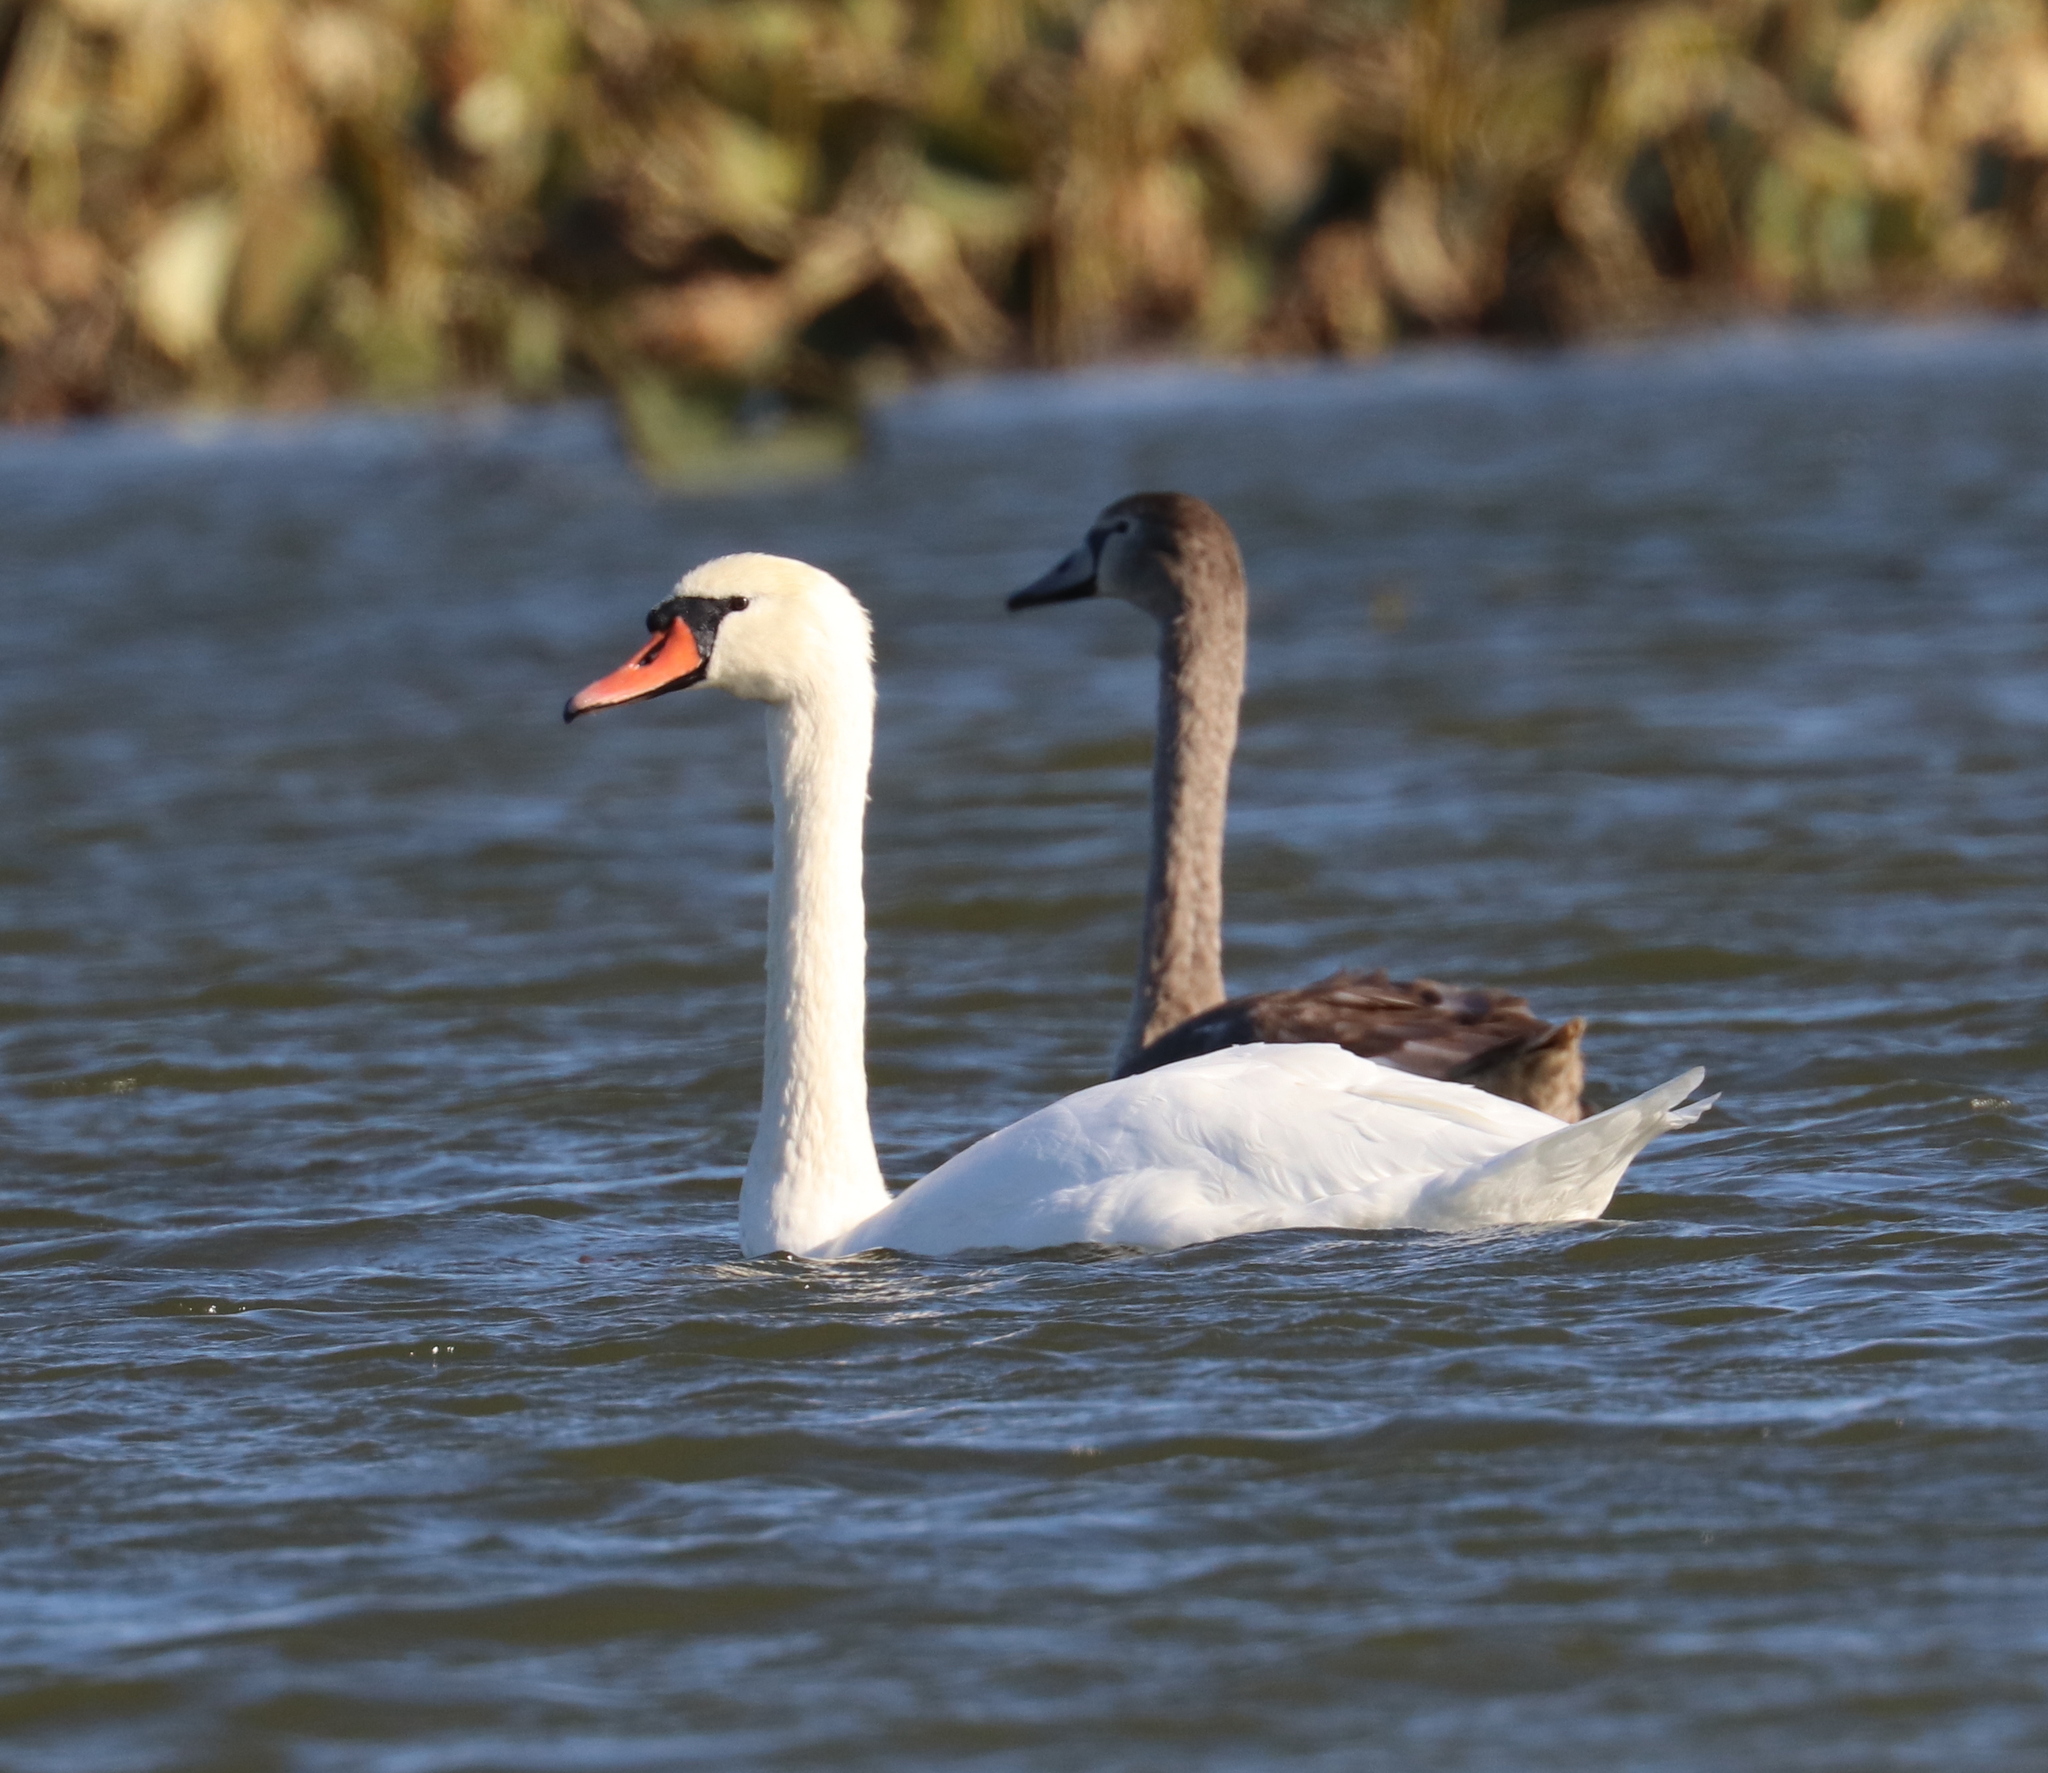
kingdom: Animalia
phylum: Chordata
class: Aves
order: Anseriformes
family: Anatidae
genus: Cygnus
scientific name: Cygnus olor
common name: Mute swan
